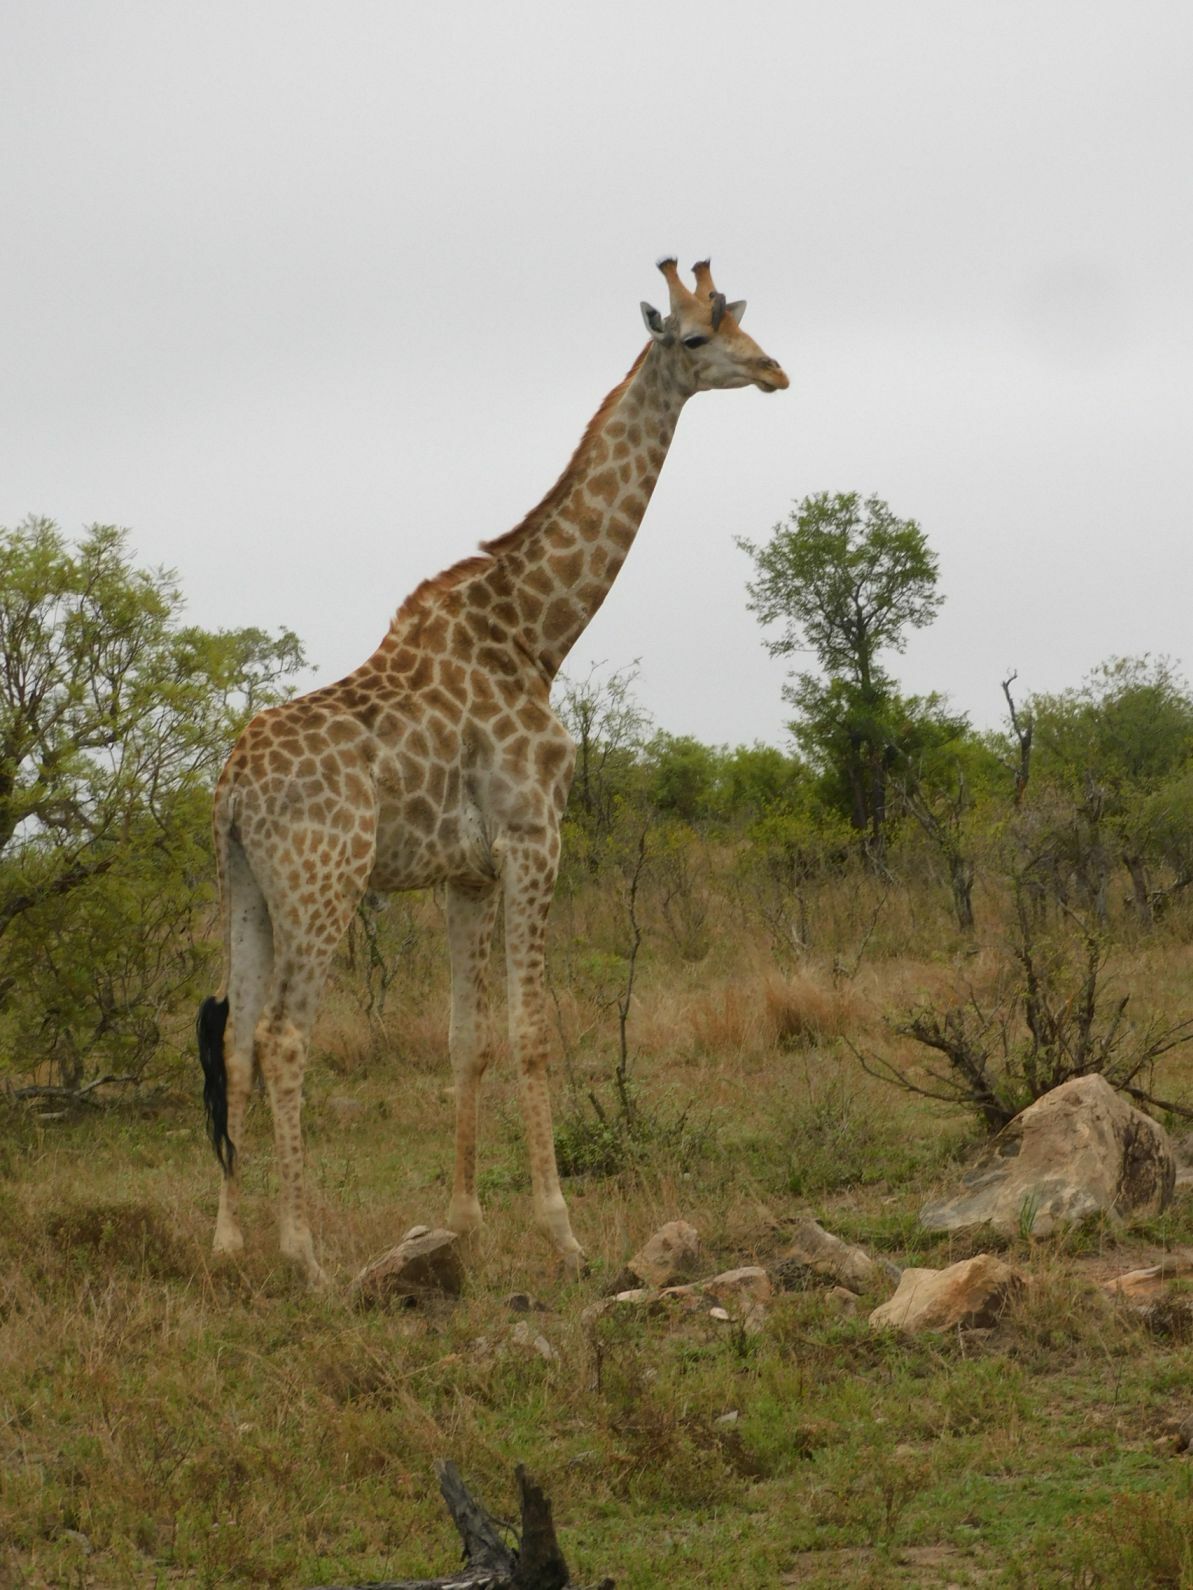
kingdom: Animalia
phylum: Chordata
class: Mammalia
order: Artiodactyla
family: Giraffidae
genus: Giraffa
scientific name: Giraffa giraffa
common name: Southern giraffe
